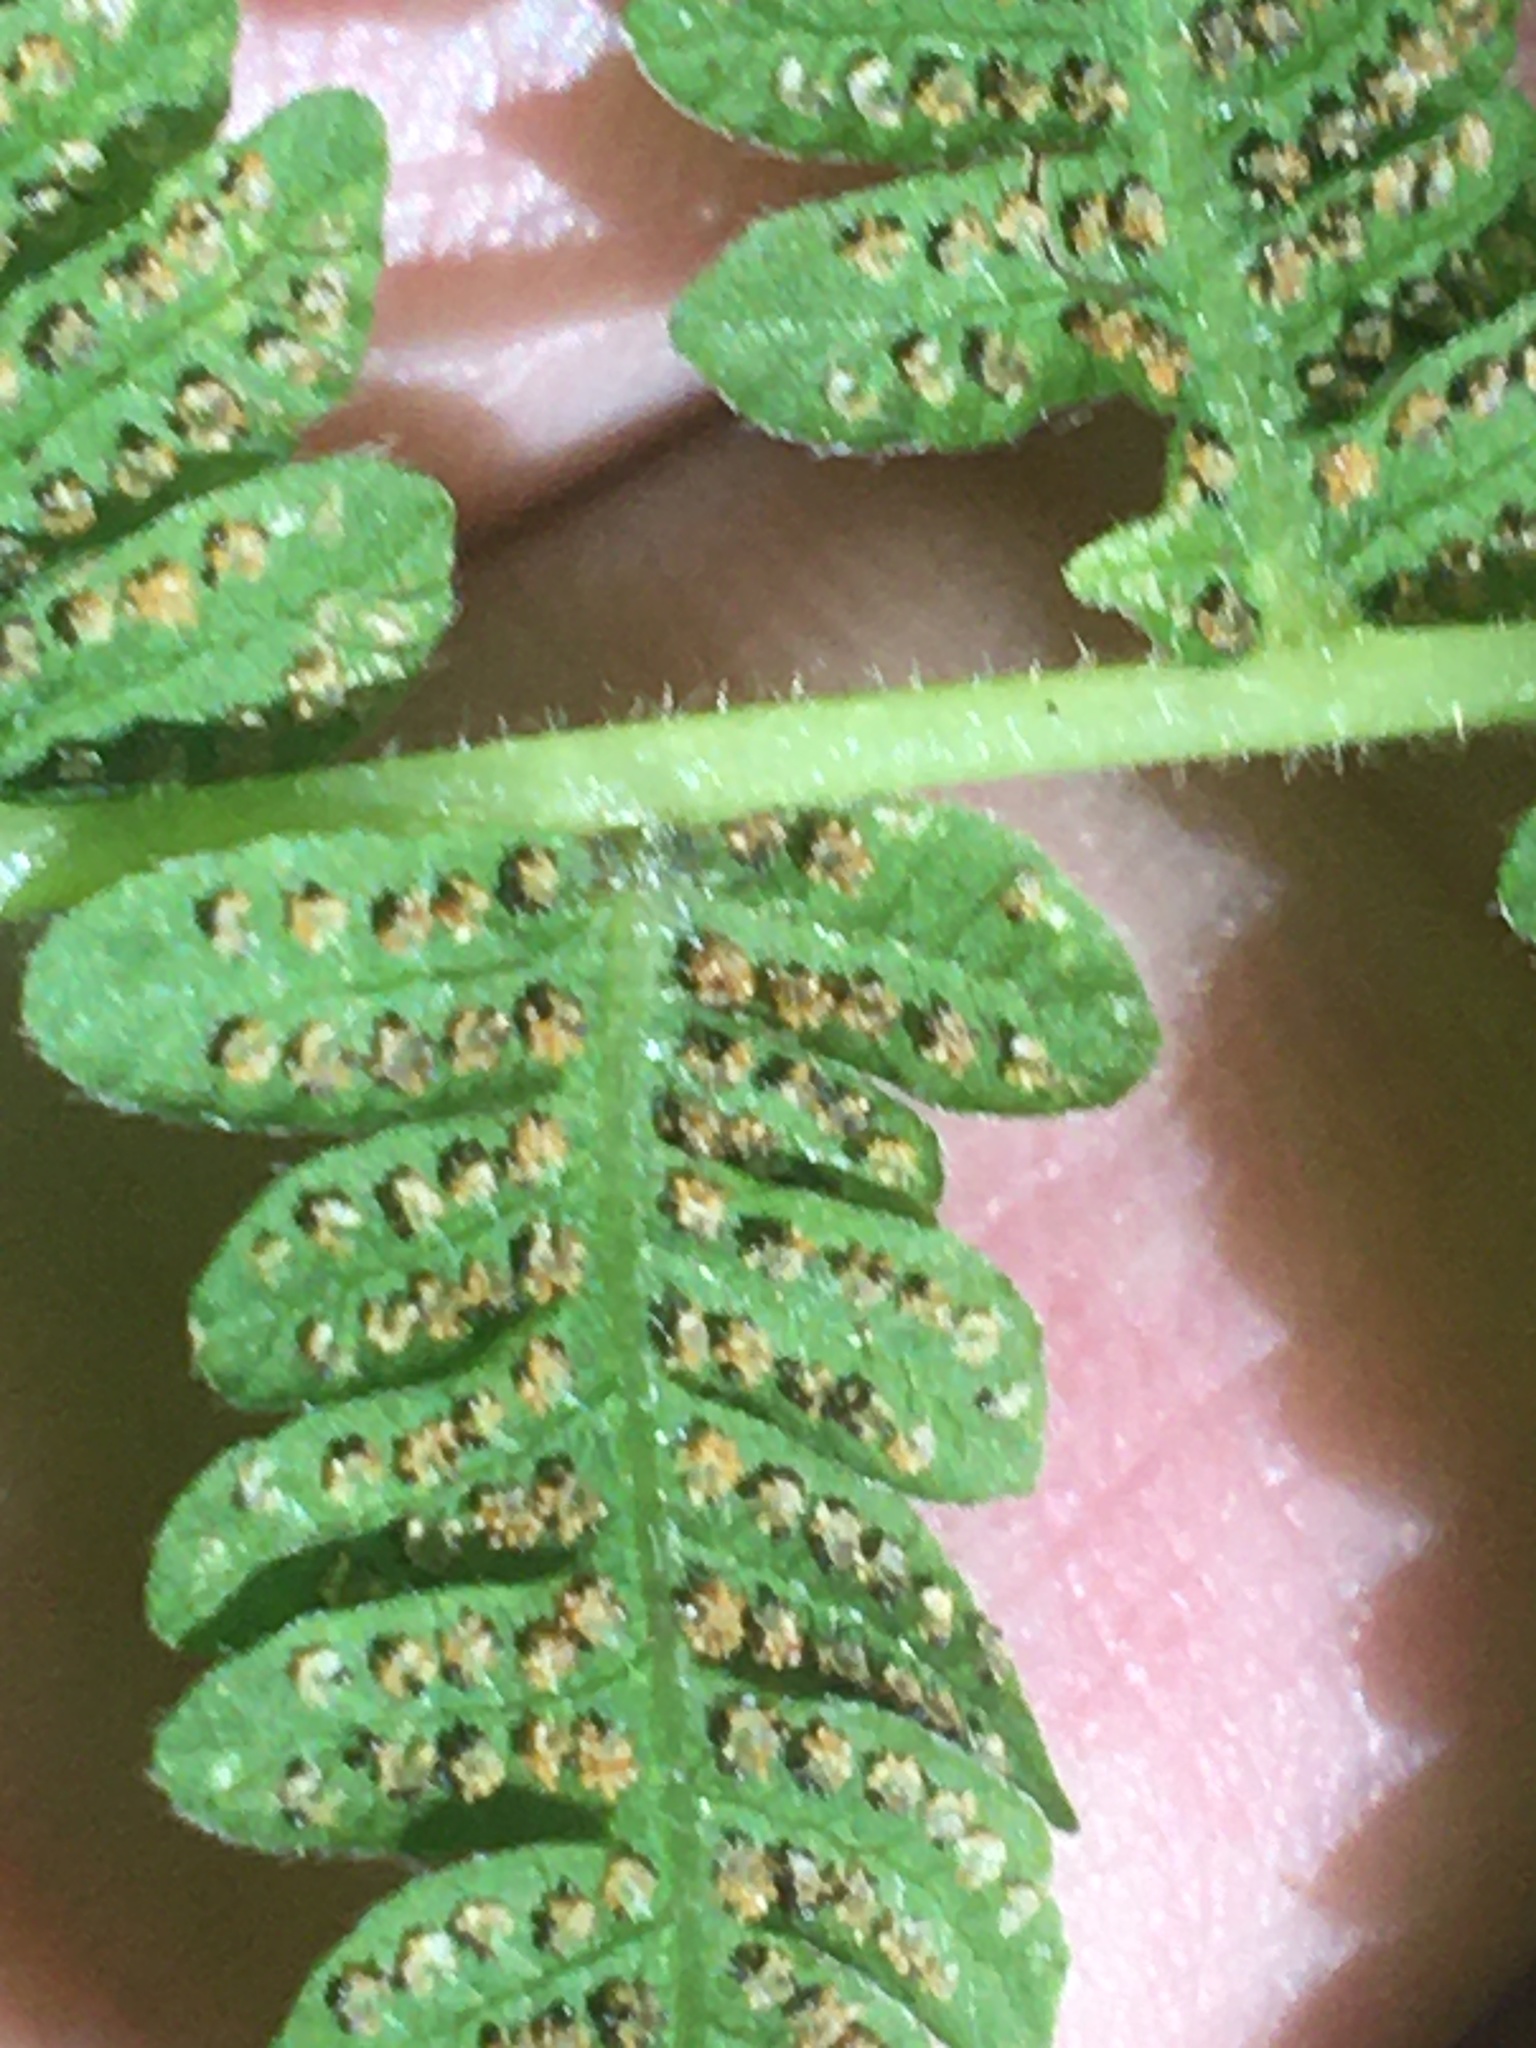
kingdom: Plantae
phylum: Tracheophyta
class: Polypodiopsida
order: Polypodiales
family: Thelypteridaceae
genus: Amauropelta
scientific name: Amauropelta noveboracensis
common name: New york fern
